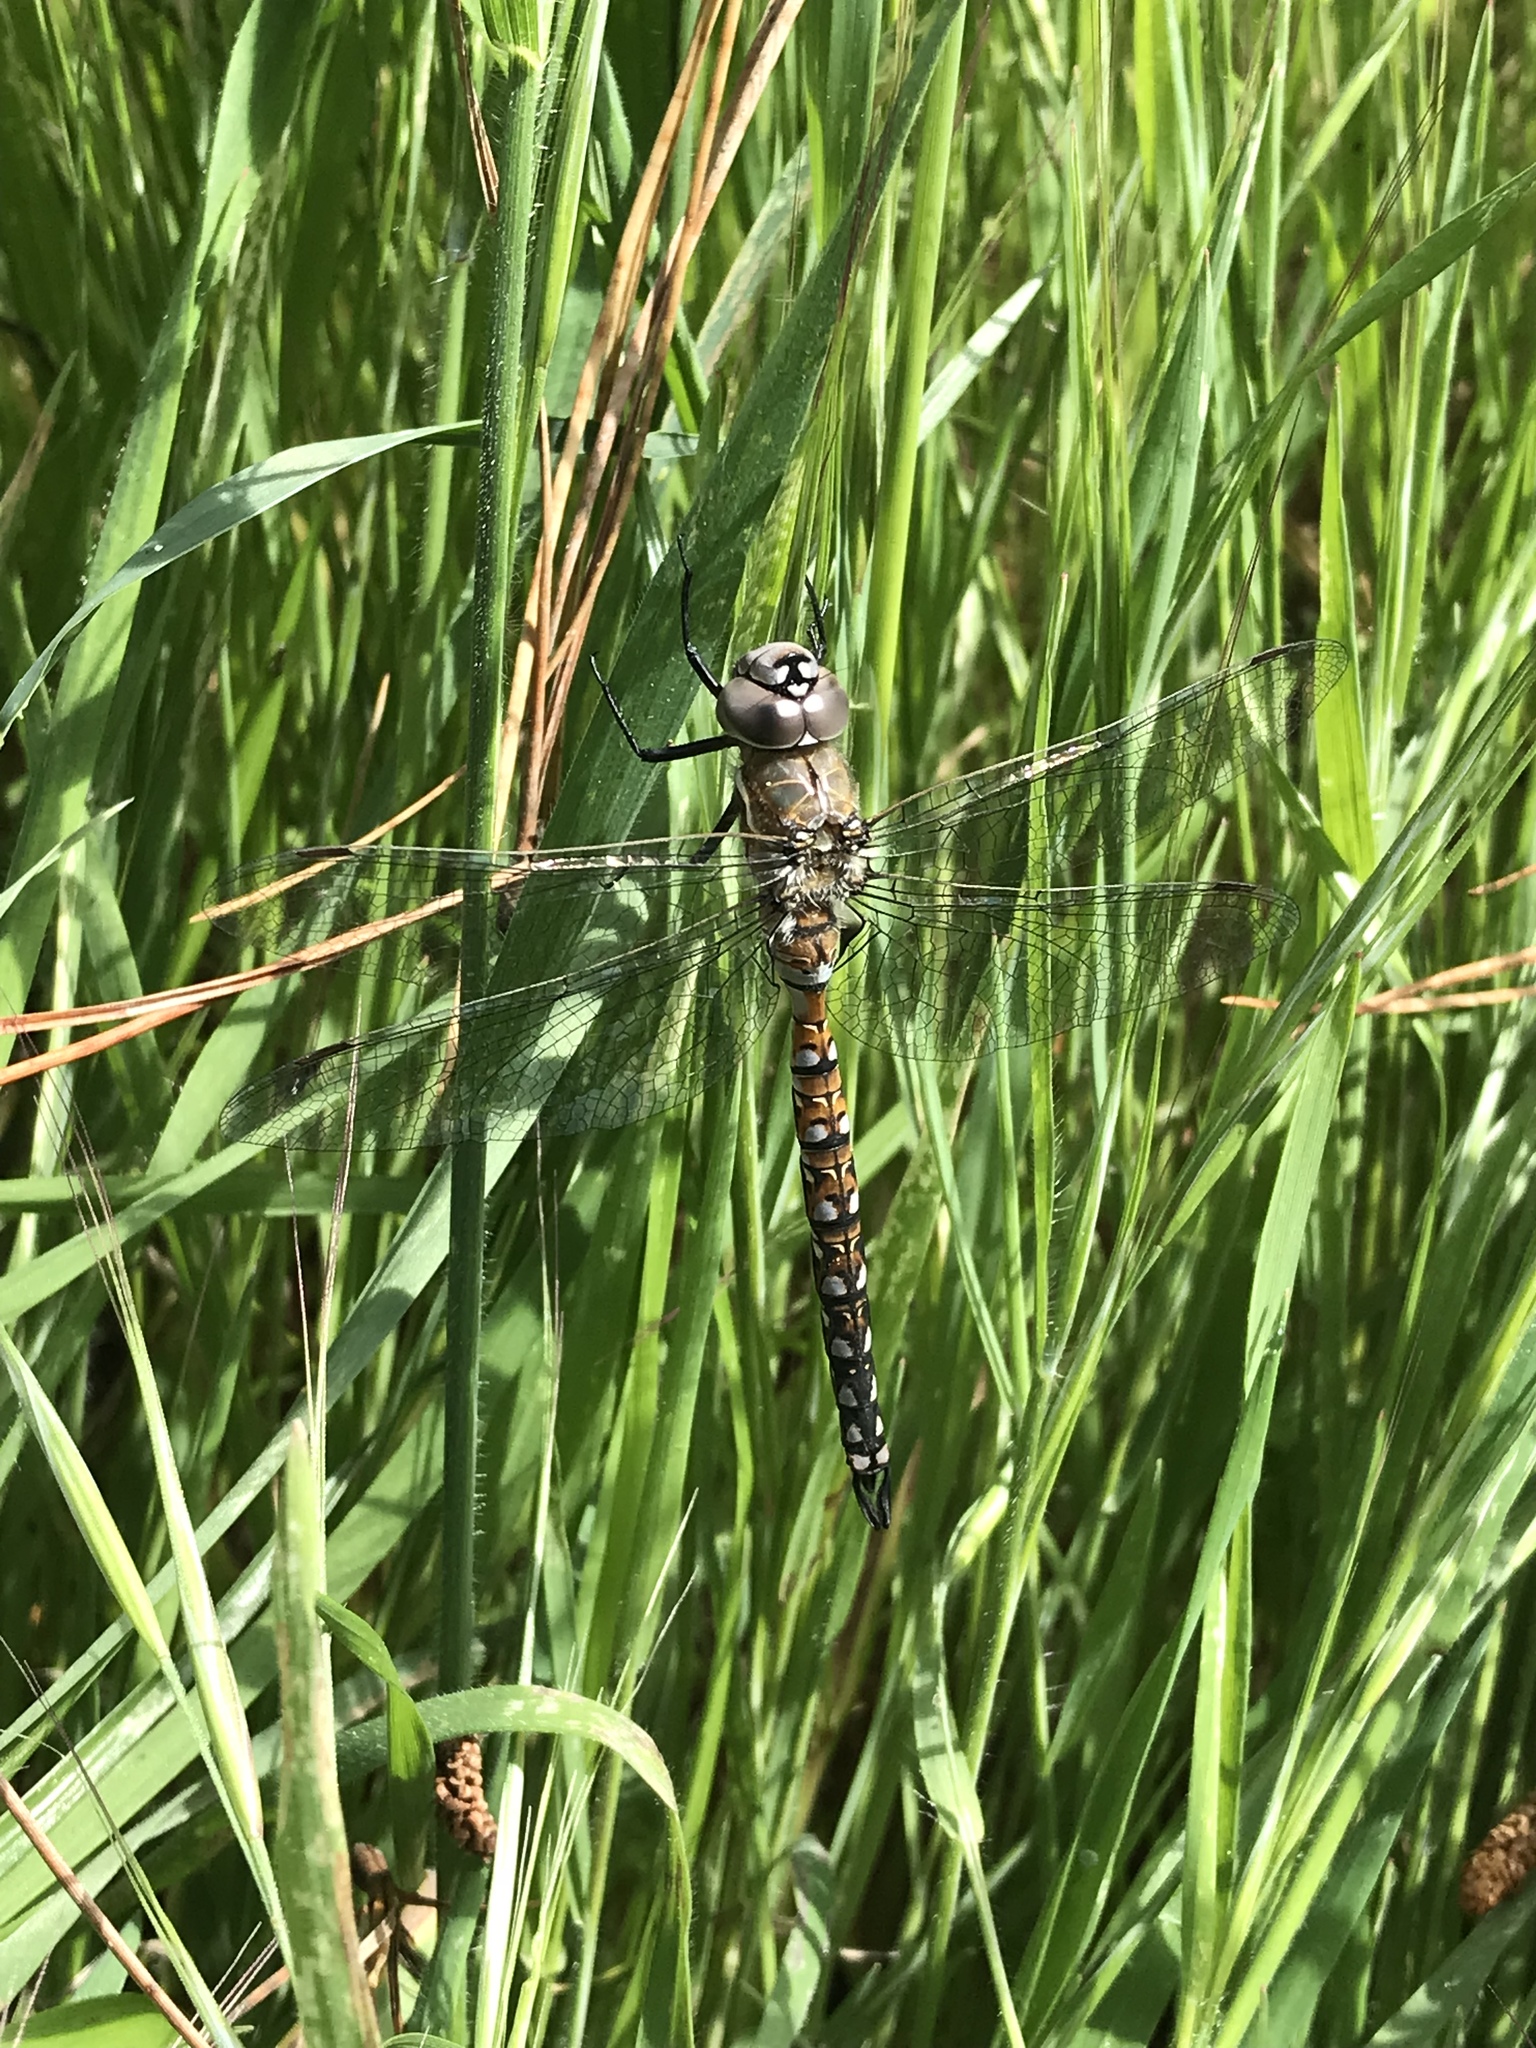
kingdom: Animalia
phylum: Arthropoda
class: Insecta
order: Odonata
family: Aeshnidae
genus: Rhionaeschna
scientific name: Rhionaeschna californica
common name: California darner
